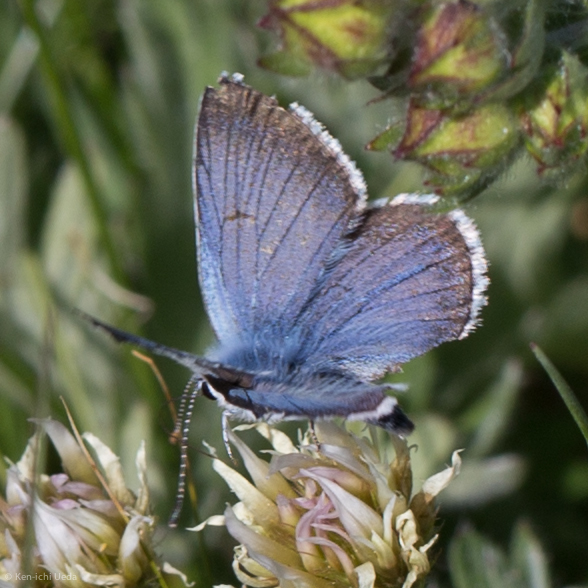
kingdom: Animalia
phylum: Arthropoda
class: Insecta
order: Lepidoptera
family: Lycaenidae
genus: Icaricia
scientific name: Icaricia saepiolus
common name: Greenish blue
